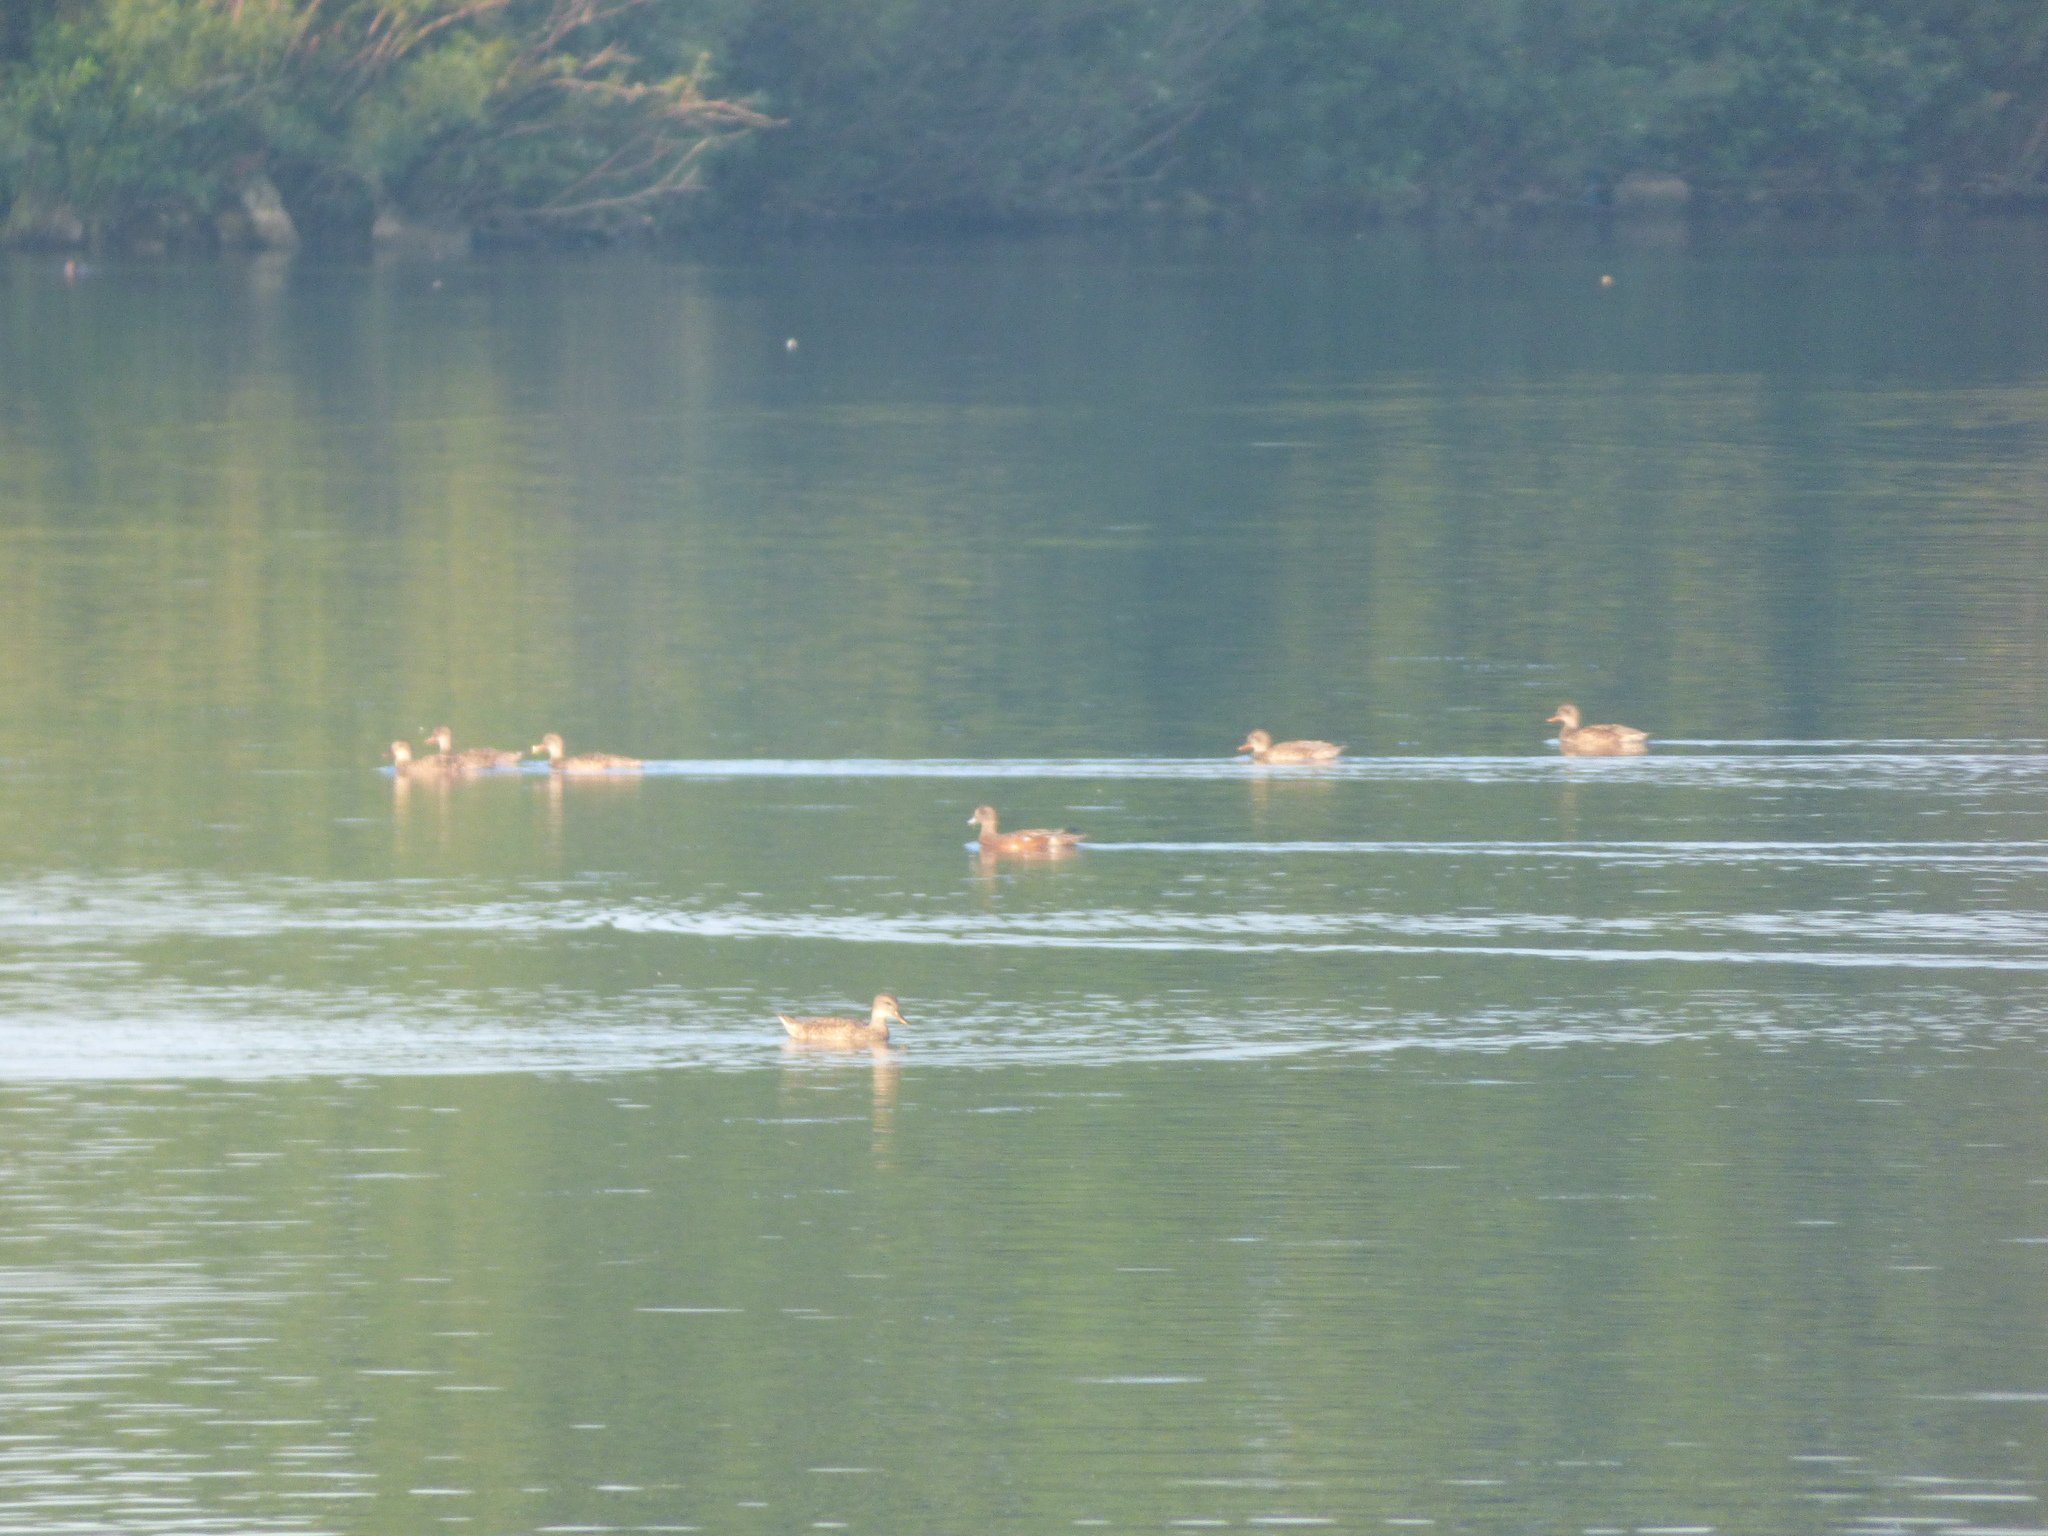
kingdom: Animalia
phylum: Chordata
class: Aves
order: Anseriformes
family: Anatidae
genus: Mareca
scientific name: Mareca americana
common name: American wigeon
